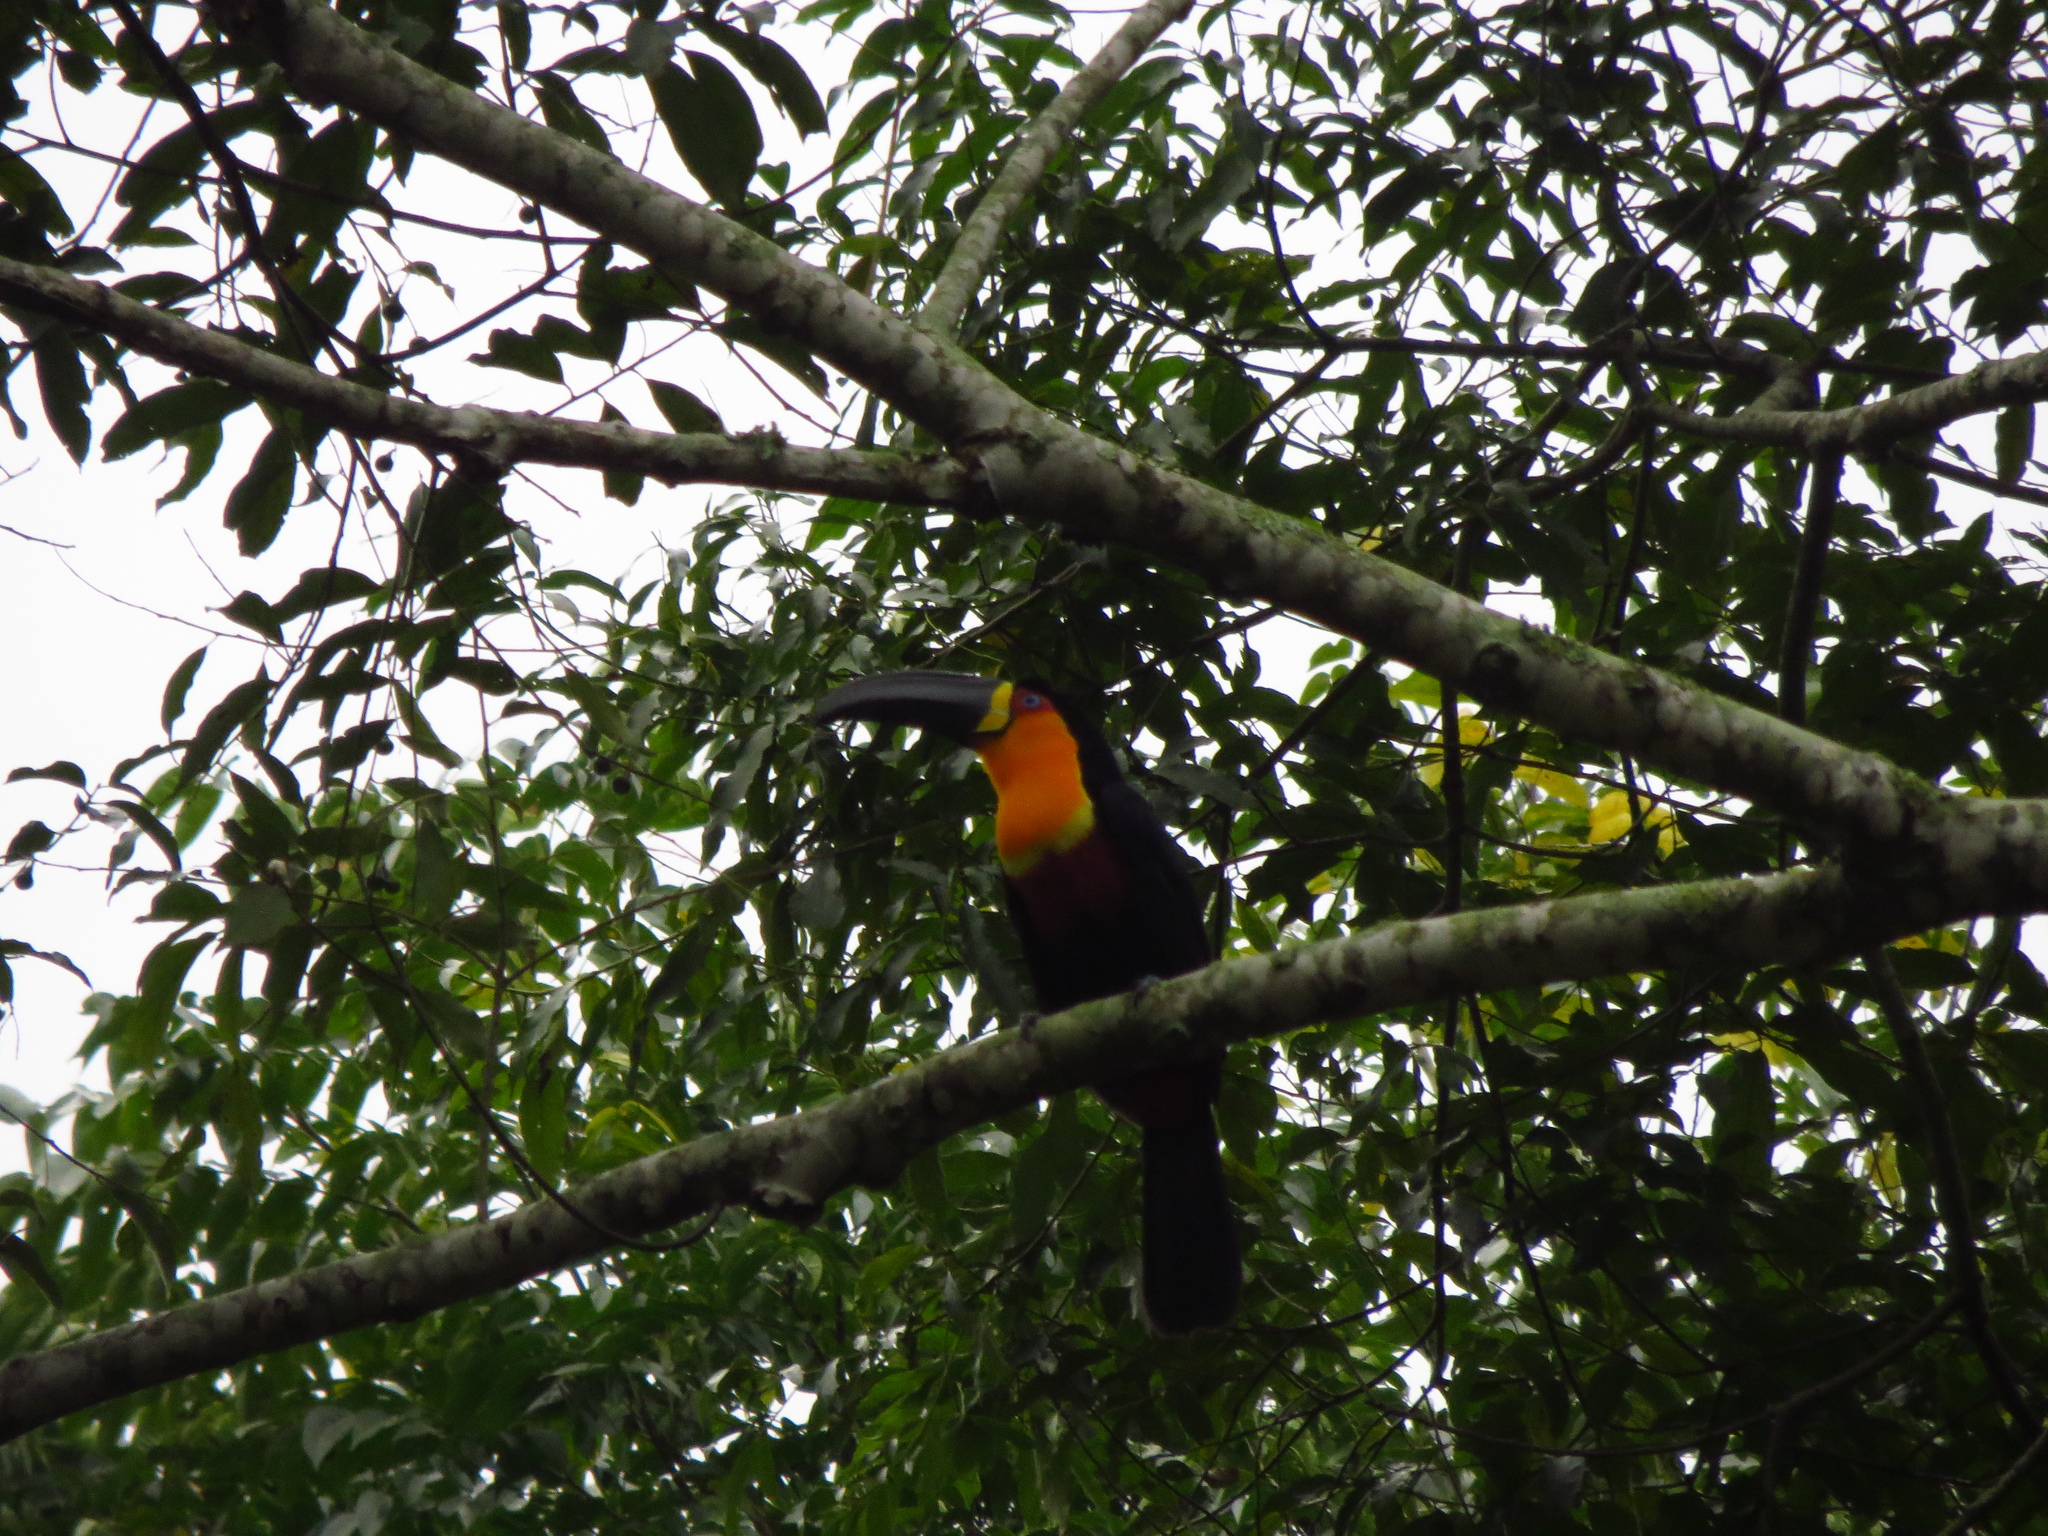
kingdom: Animalia
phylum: Chordata
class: Aves
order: Piciformes
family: Ramphastidae
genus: Ramphastos
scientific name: Ramphastos vitellinus
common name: Channel-billed toucan
